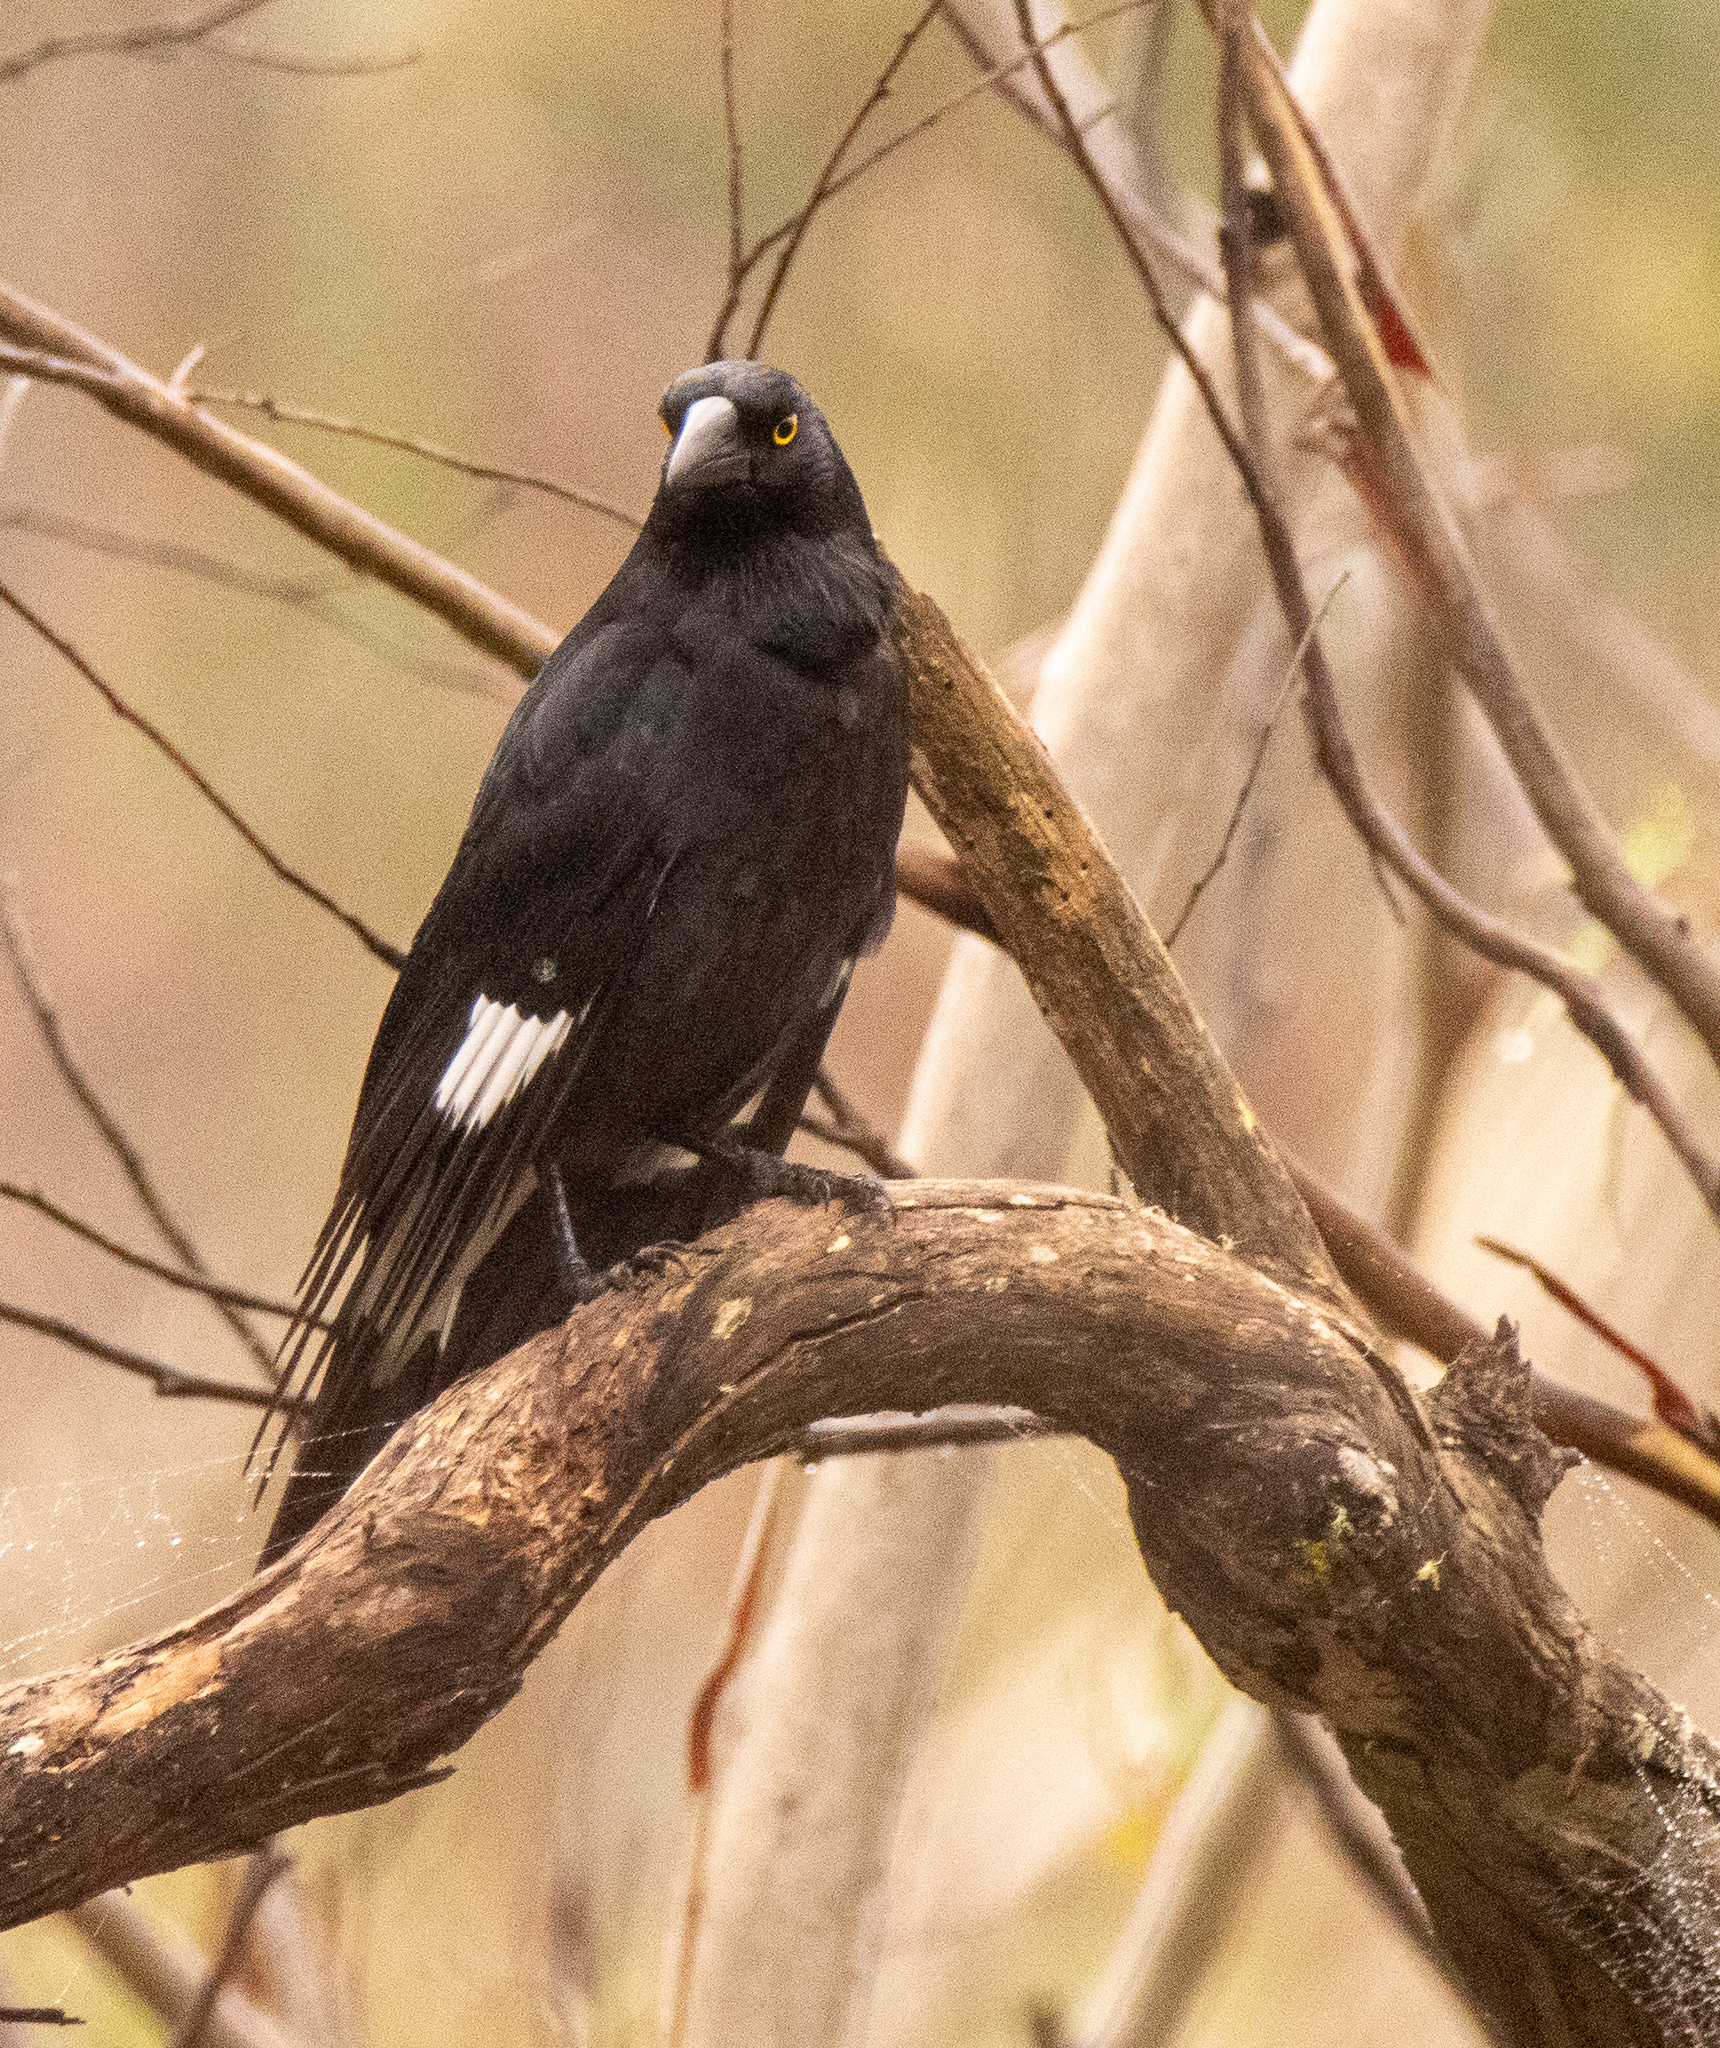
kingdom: Animalia
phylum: Chordata
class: Aves
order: Passeriformes
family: Cracticidae
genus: Strepera
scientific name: Strepera graculina
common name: Pied currawong
